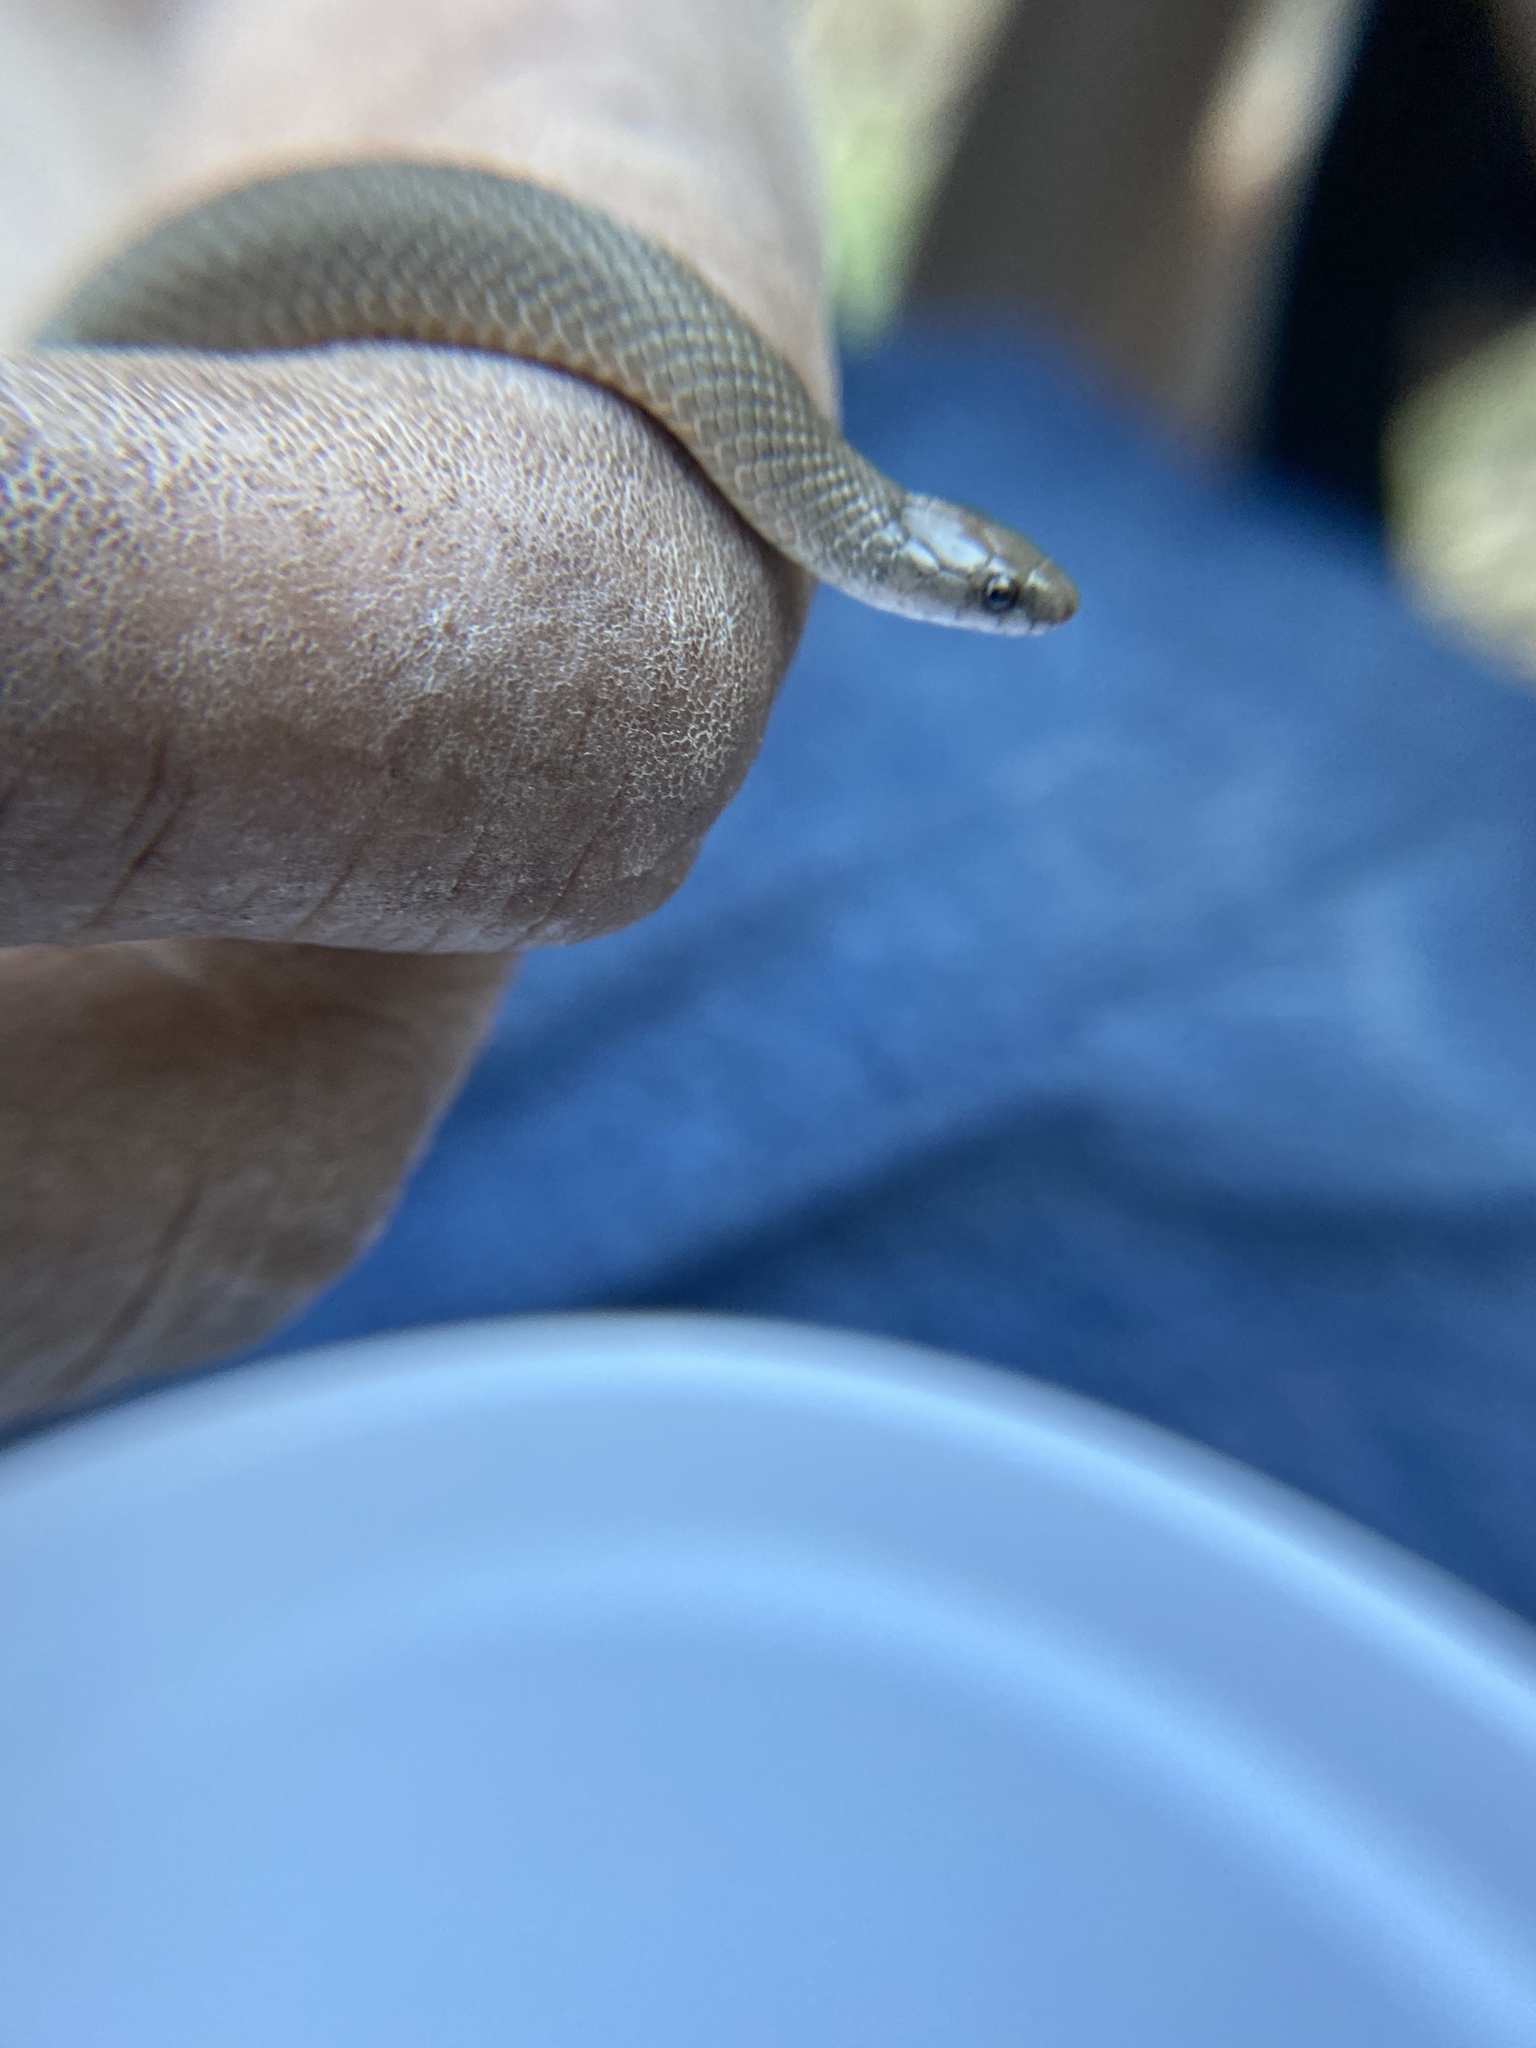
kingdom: Animalia
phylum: Chordata
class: Squamata
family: Colubridae
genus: Haldea
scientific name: Haldea striatula
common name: Rough earth snake
